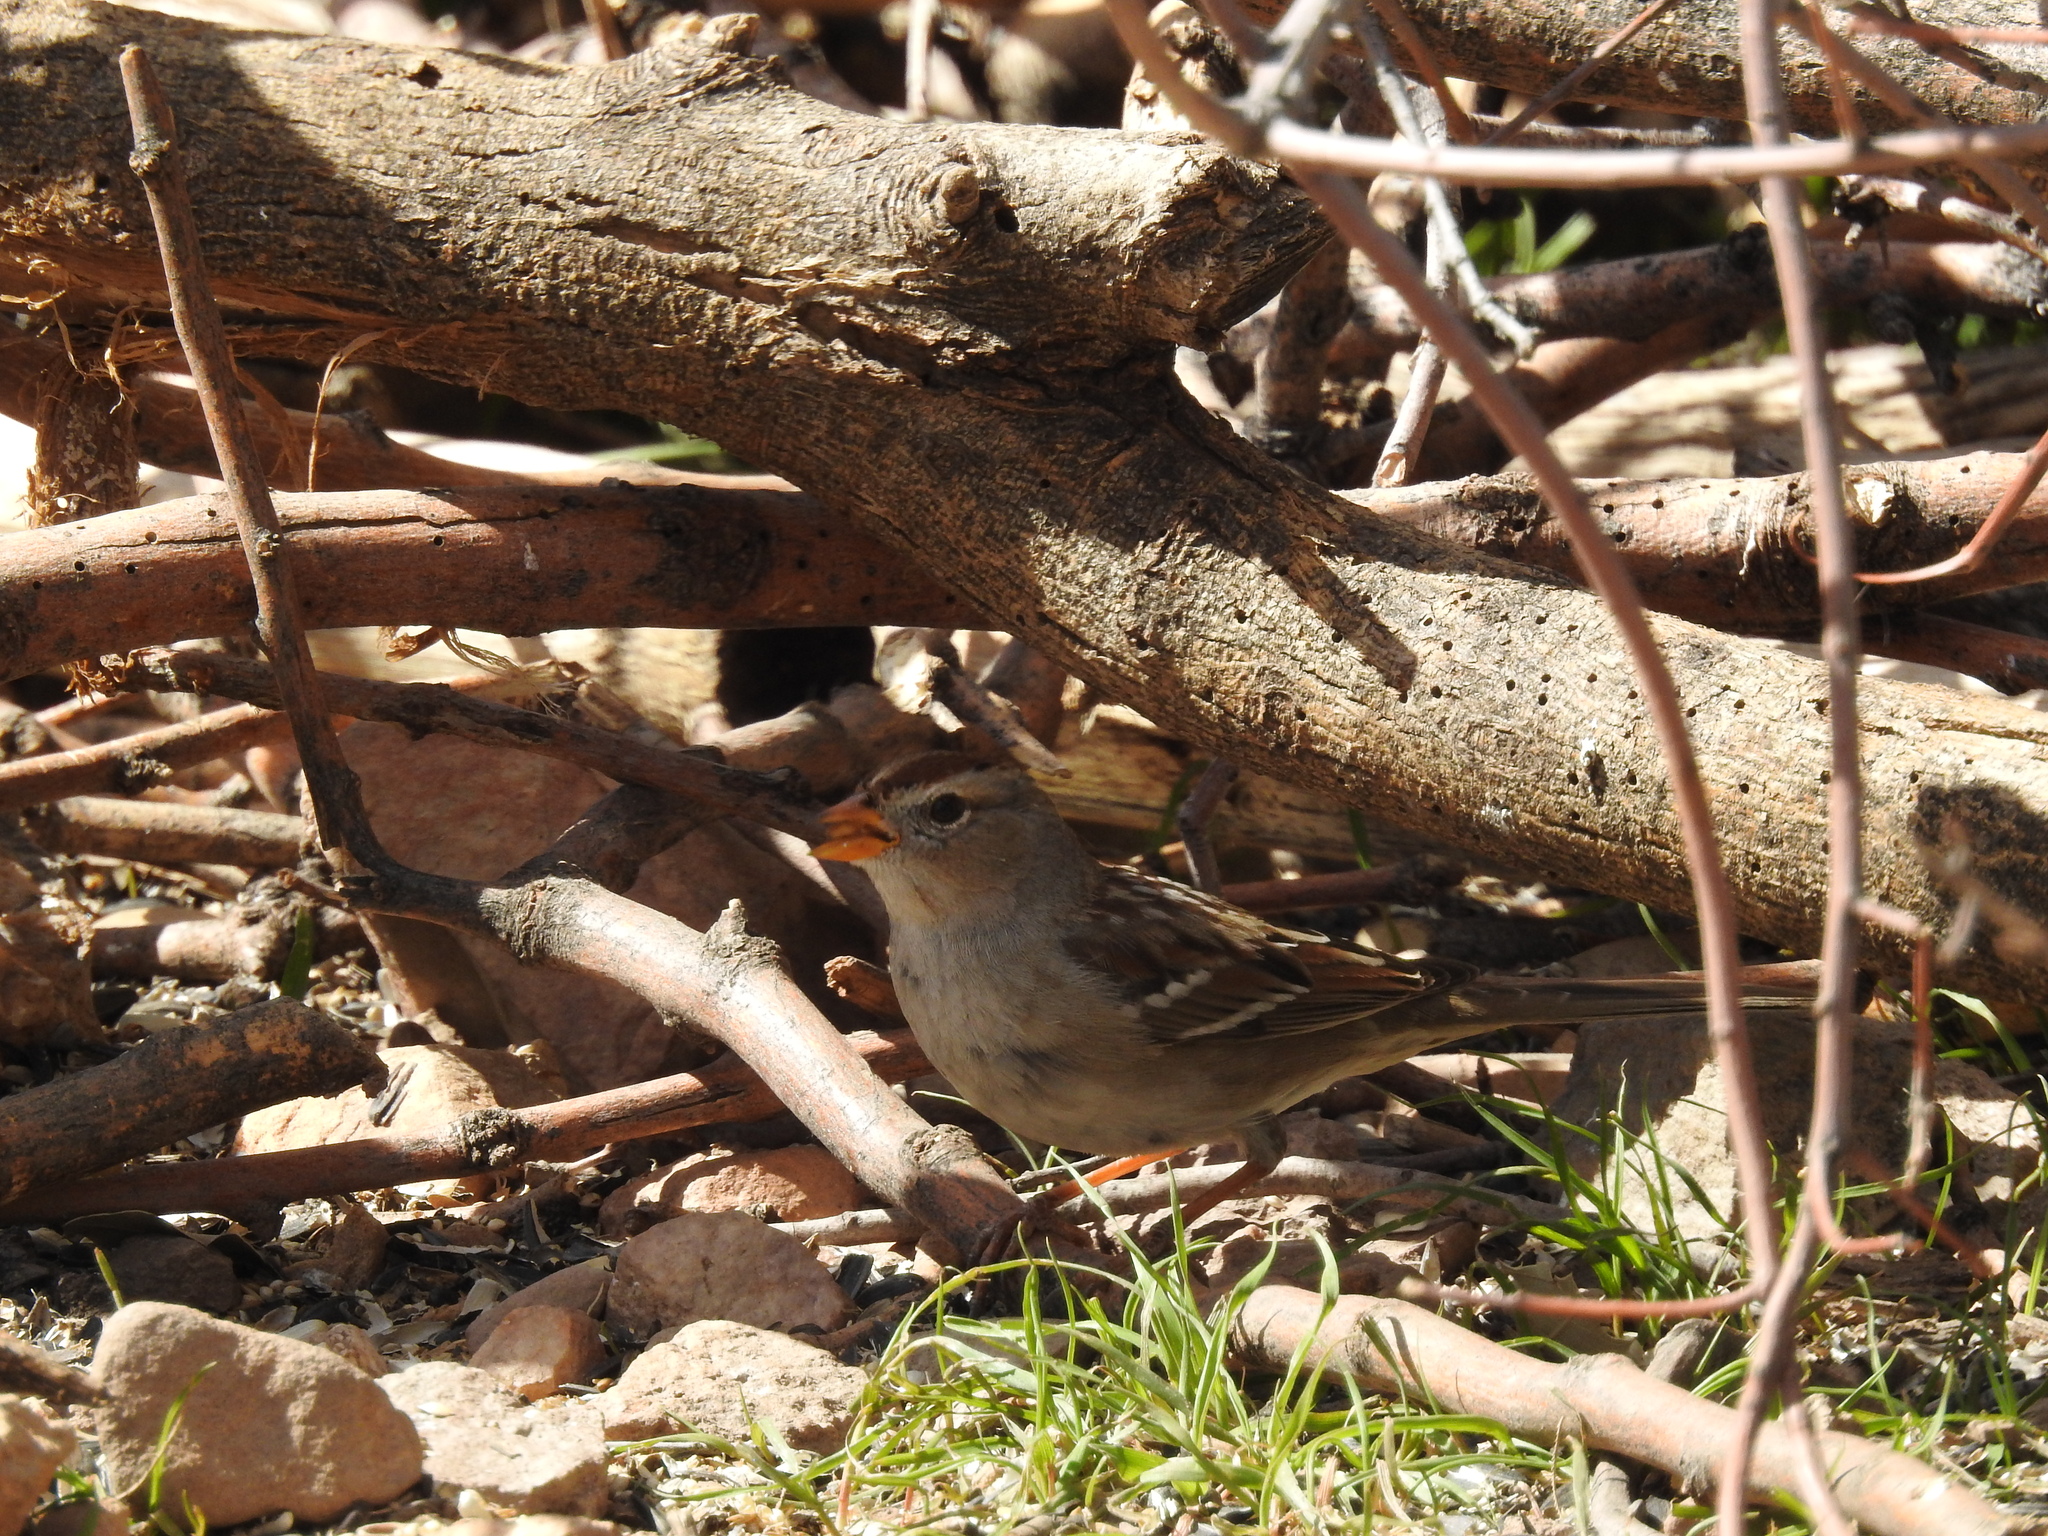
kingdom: Animalia
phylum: Chordata
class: Aves
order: Passeriformes
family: Passerellidae
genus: Zonotrichia
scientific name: Zonotrichia leucophrys
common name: White-crowned sparrow
